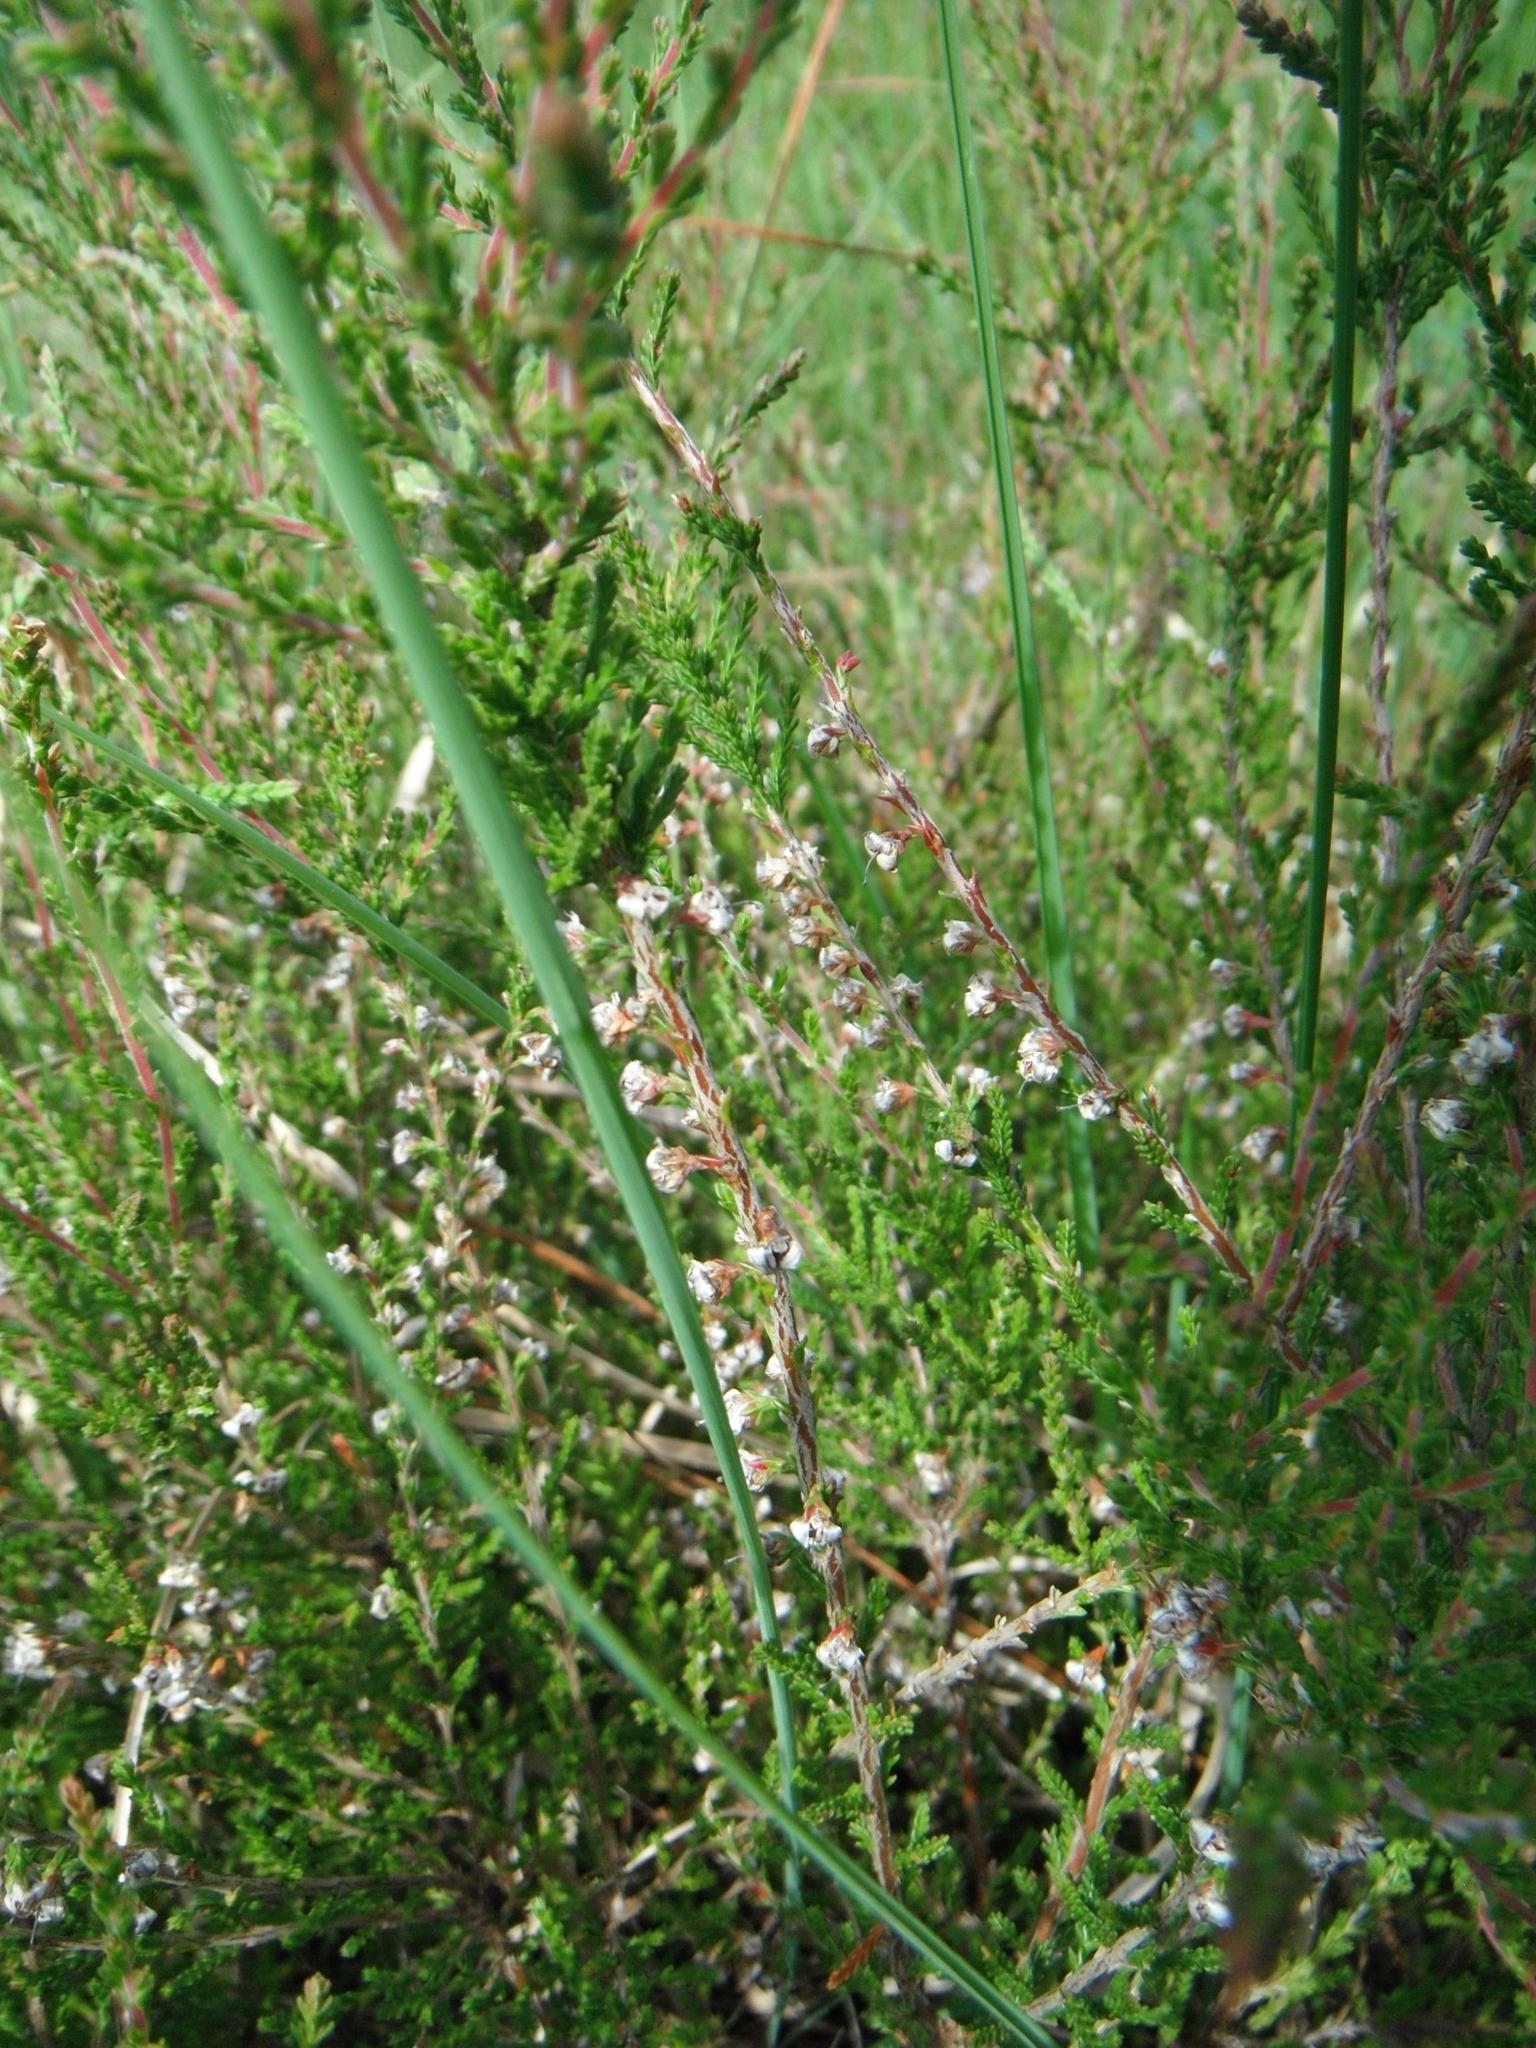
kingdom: Plantae
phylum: Tracheophyta
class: Magnoliopsida
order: Ericales
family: Ericaceae
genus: Calluna
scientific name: Calluna vulgaris
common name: Heather
